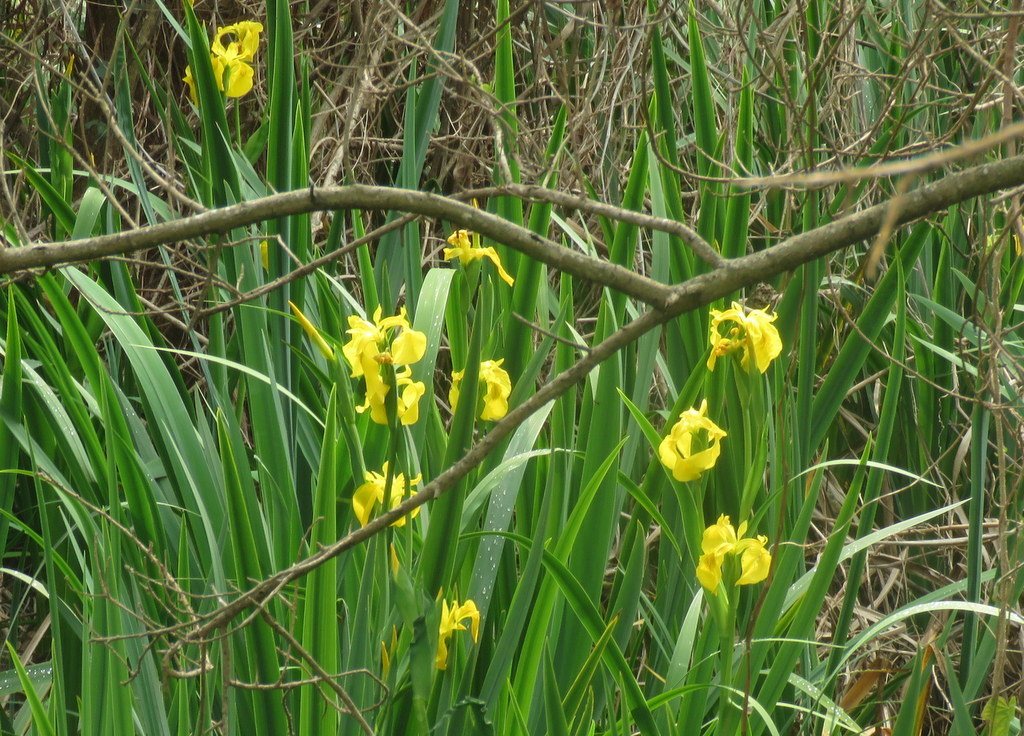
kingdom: Plantae
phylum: Tracheophyta
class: Liliopsida
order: Asparagales
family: Iridaceae
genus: Iris
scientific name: Iris pseudacorus
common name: Yellow flag
